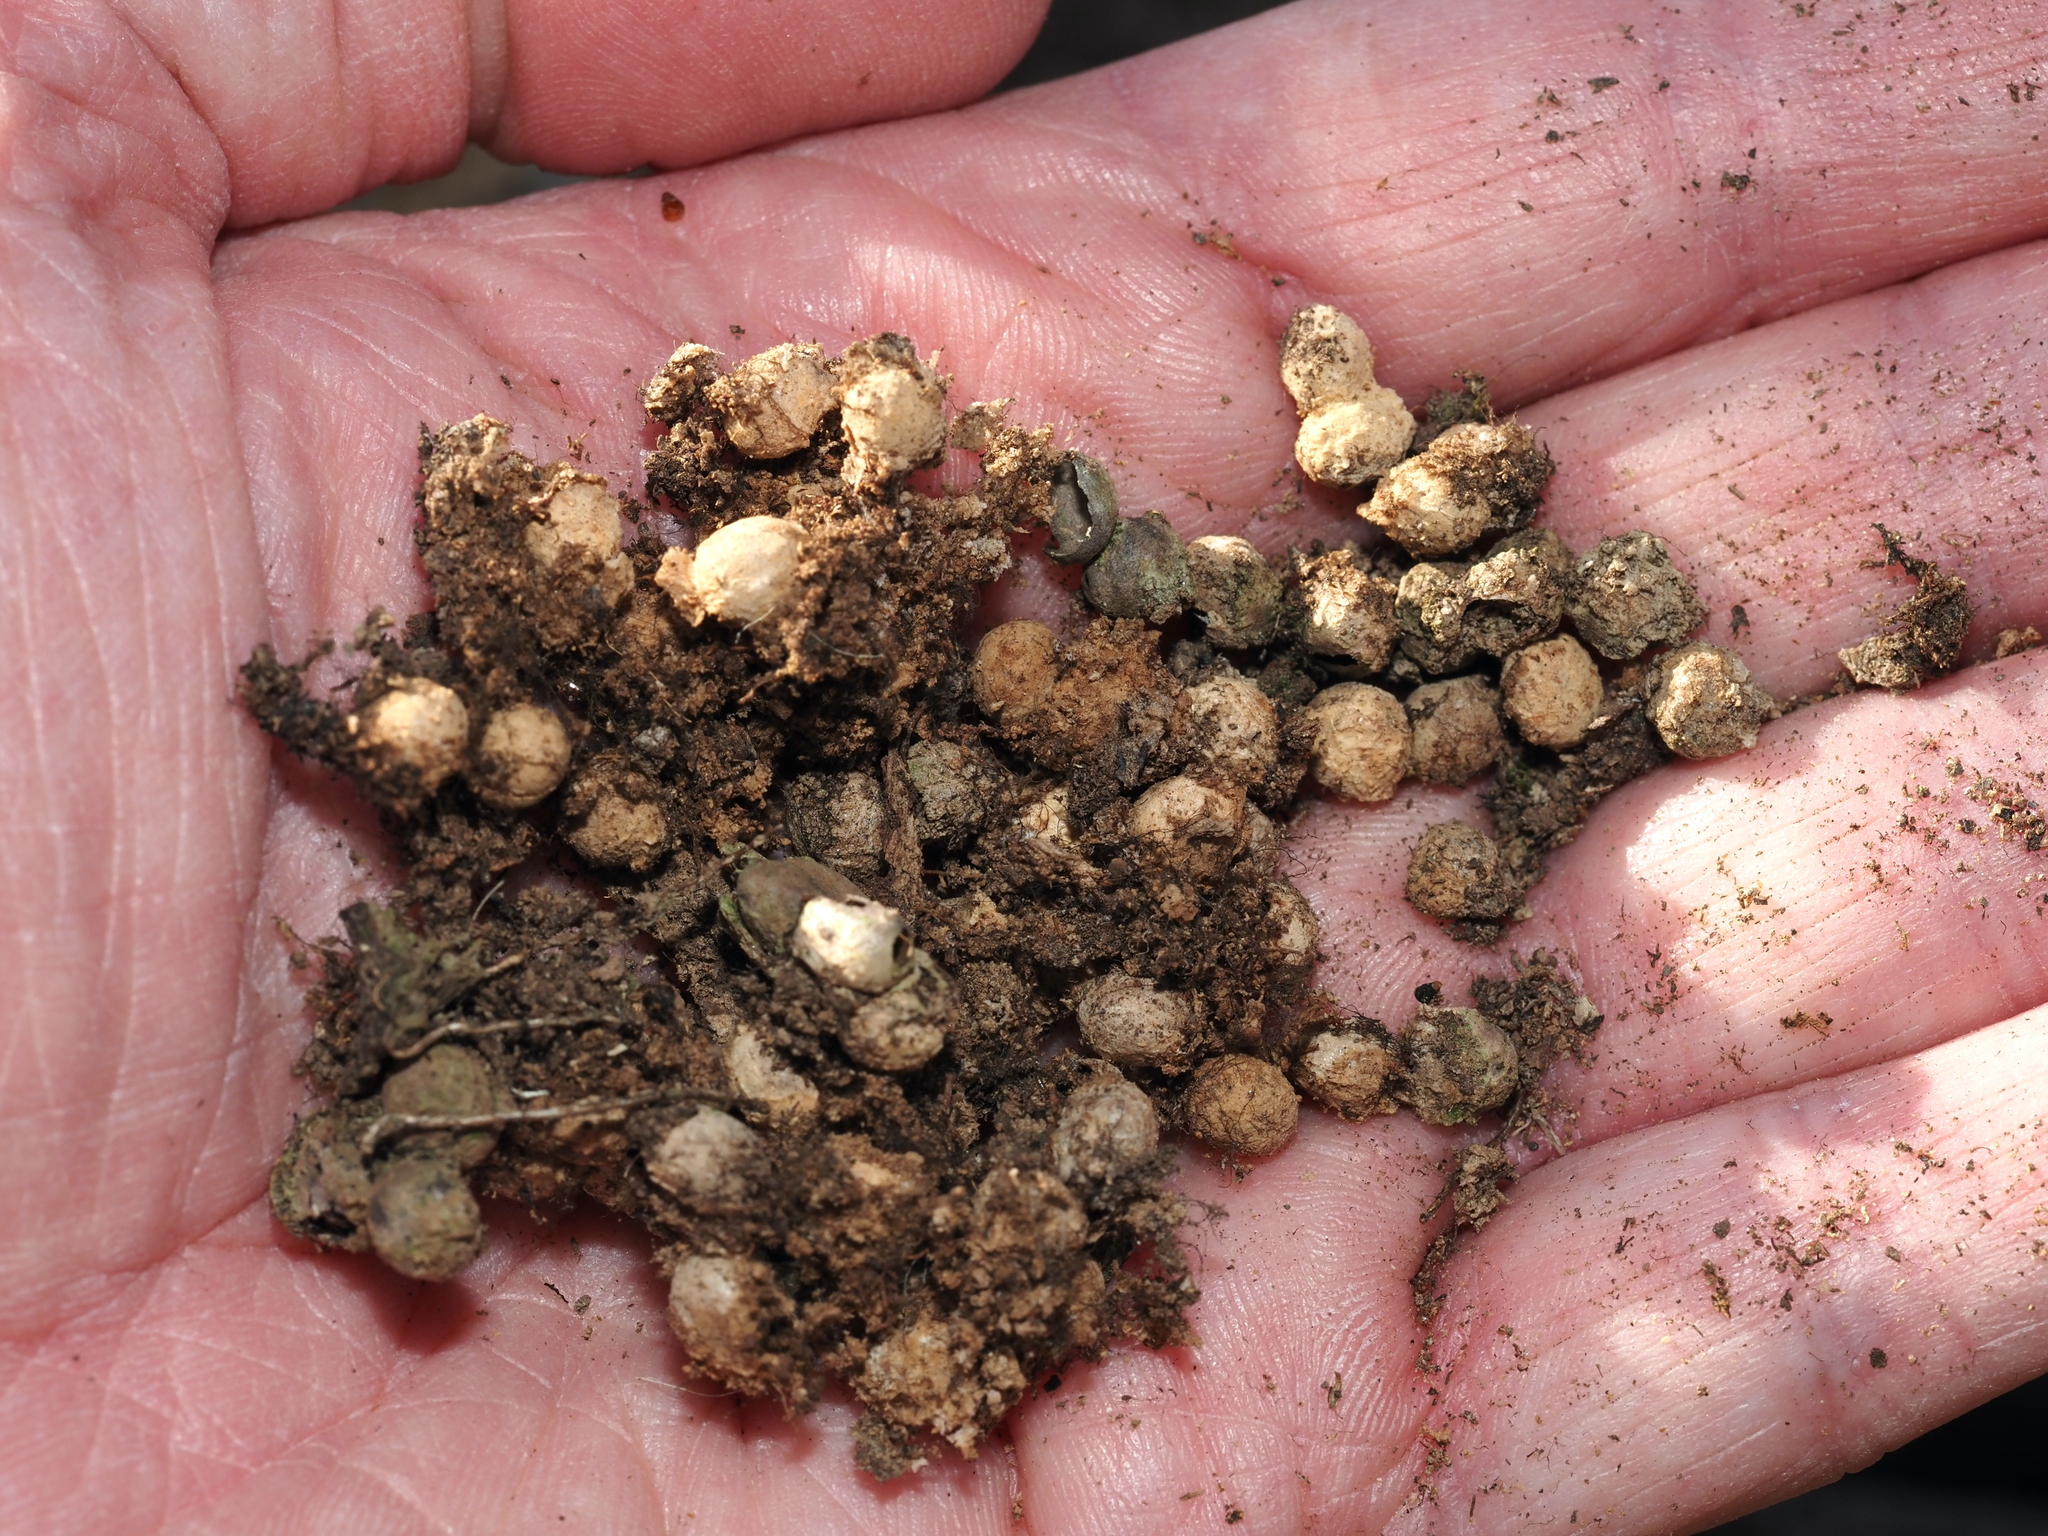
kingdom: Animalia
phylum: Arthropoda
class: Insecta
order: Hymenoptera
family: Cynipidae
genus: Callirhytis
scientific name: Callirhytis
